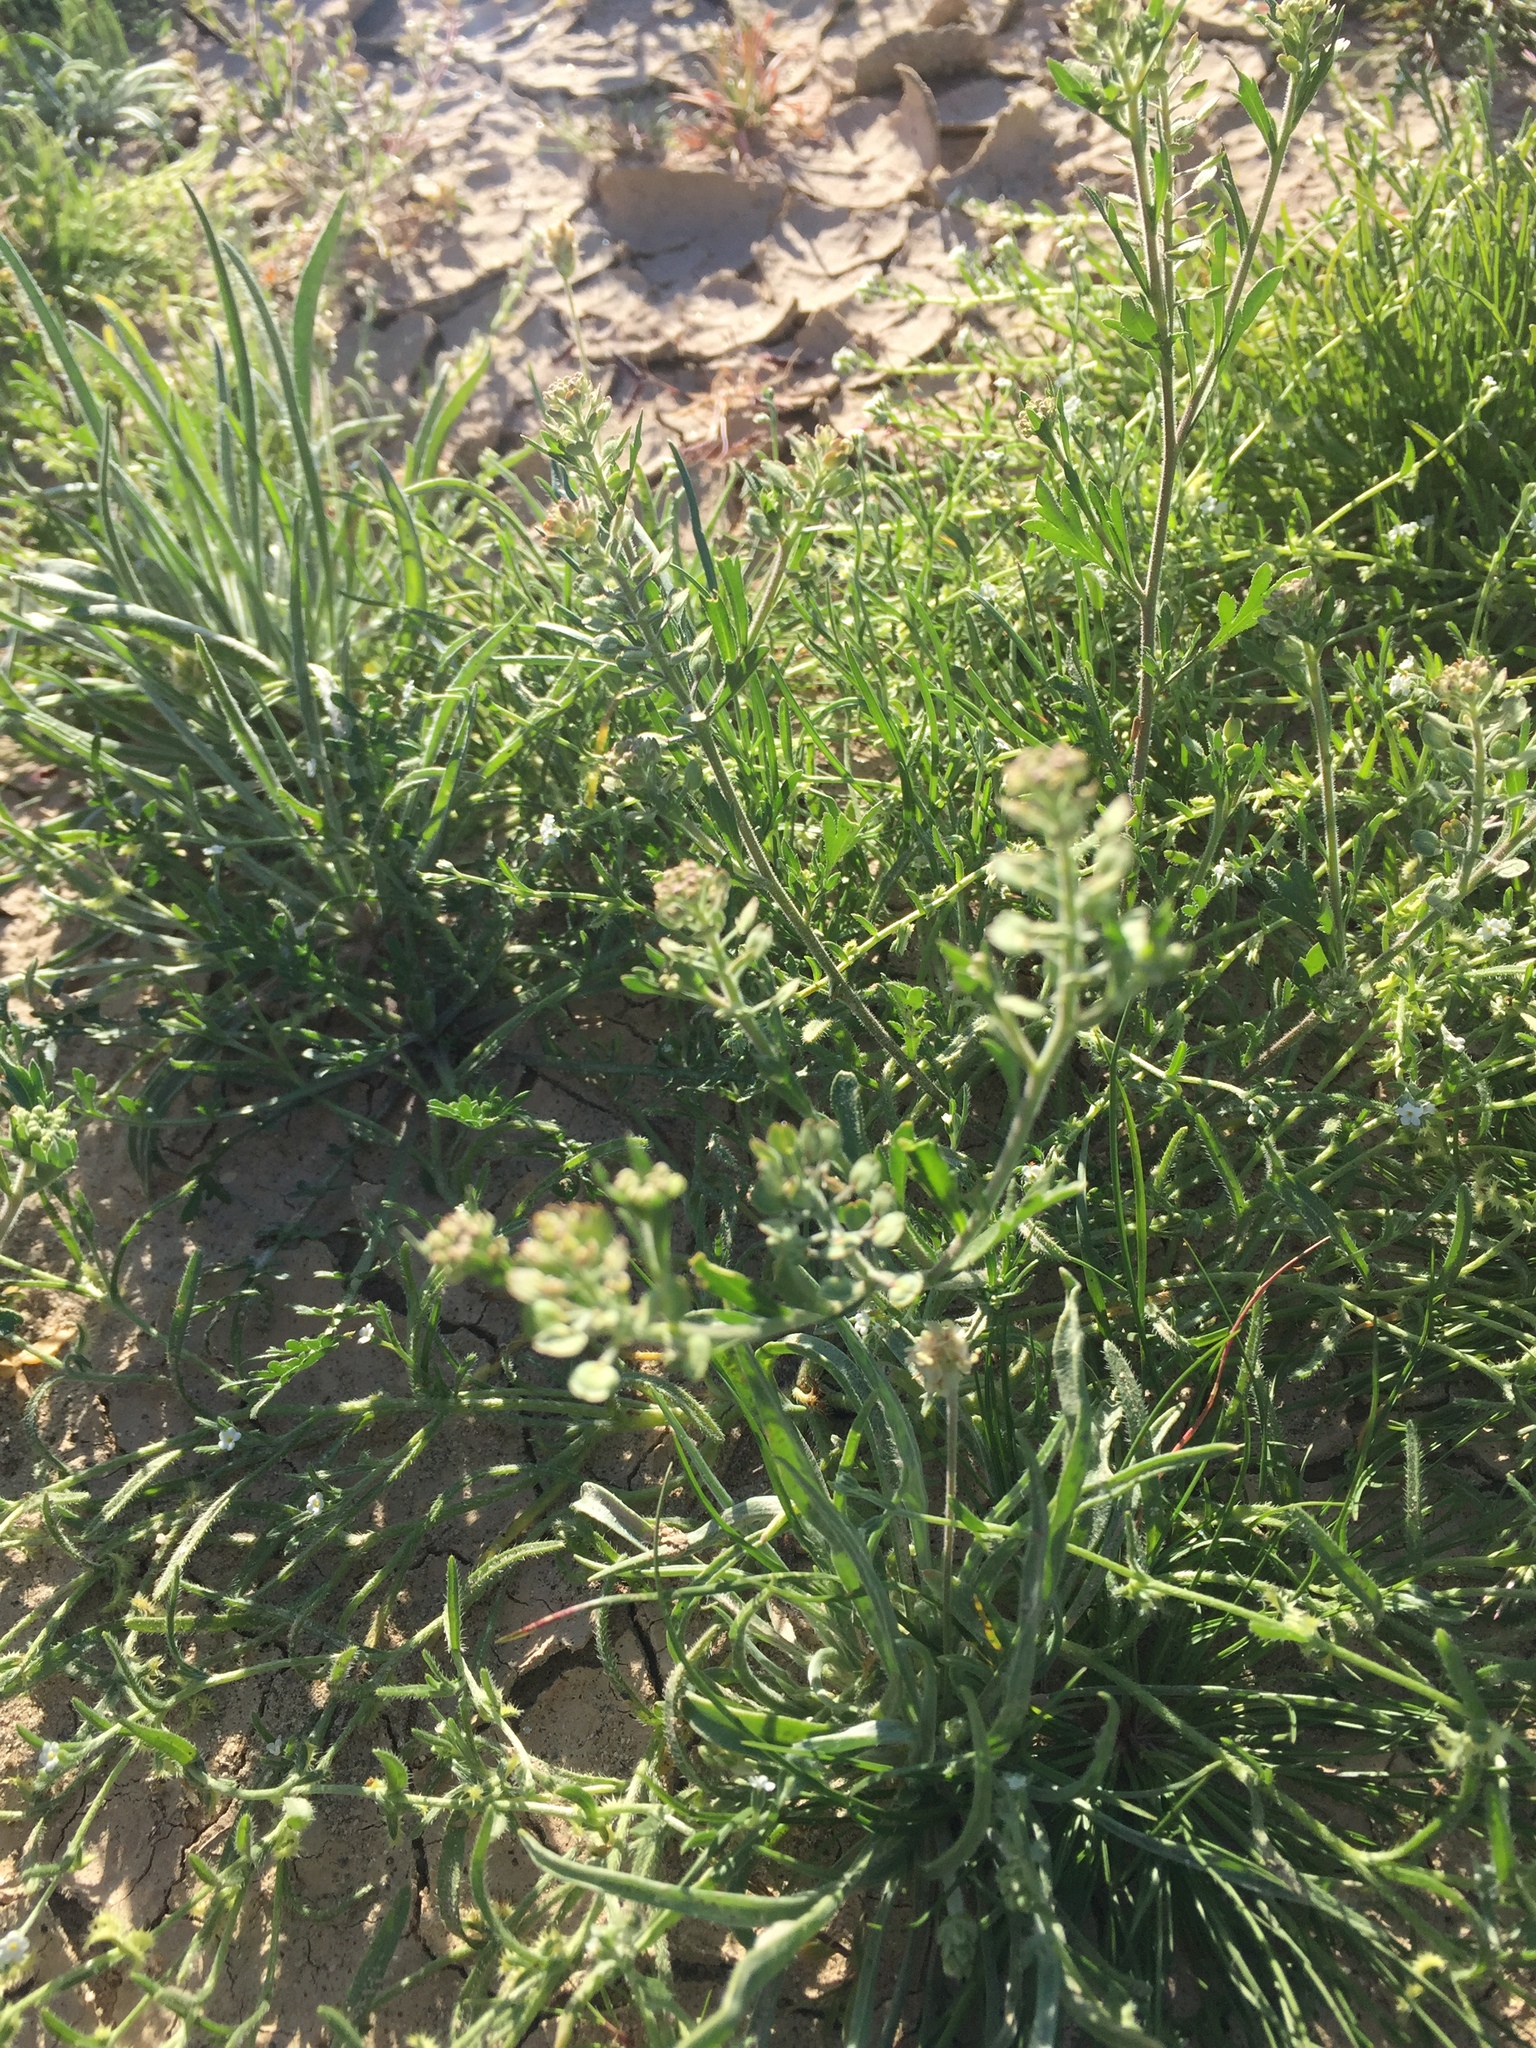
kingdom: Plantae
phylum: Tracheophyta
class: Magnoliopsida
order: Brassicales
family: Brassicaceae
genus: Lepidium
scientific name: Lepidium lasiocarpum
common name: Hairy-pod pepperwort
